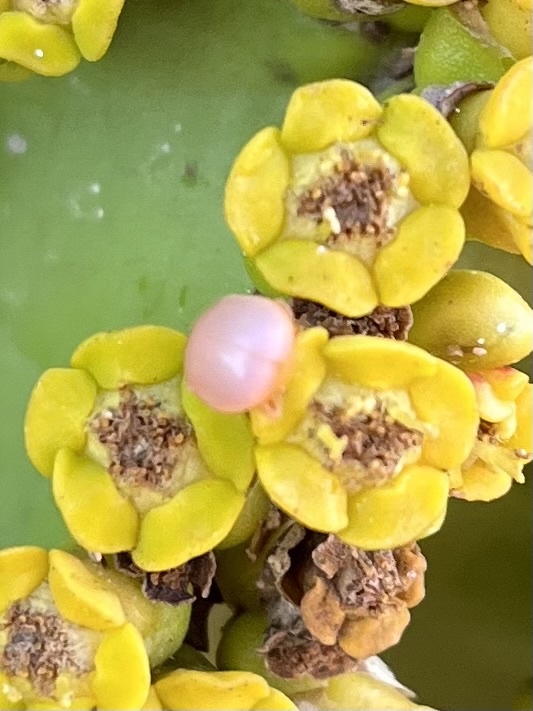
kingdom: Animalia
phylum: Arthropoda
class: Insecta
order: Hymenoptera
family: Ichneumonidae
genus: Ortezia
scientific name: Ortezia ochracea
